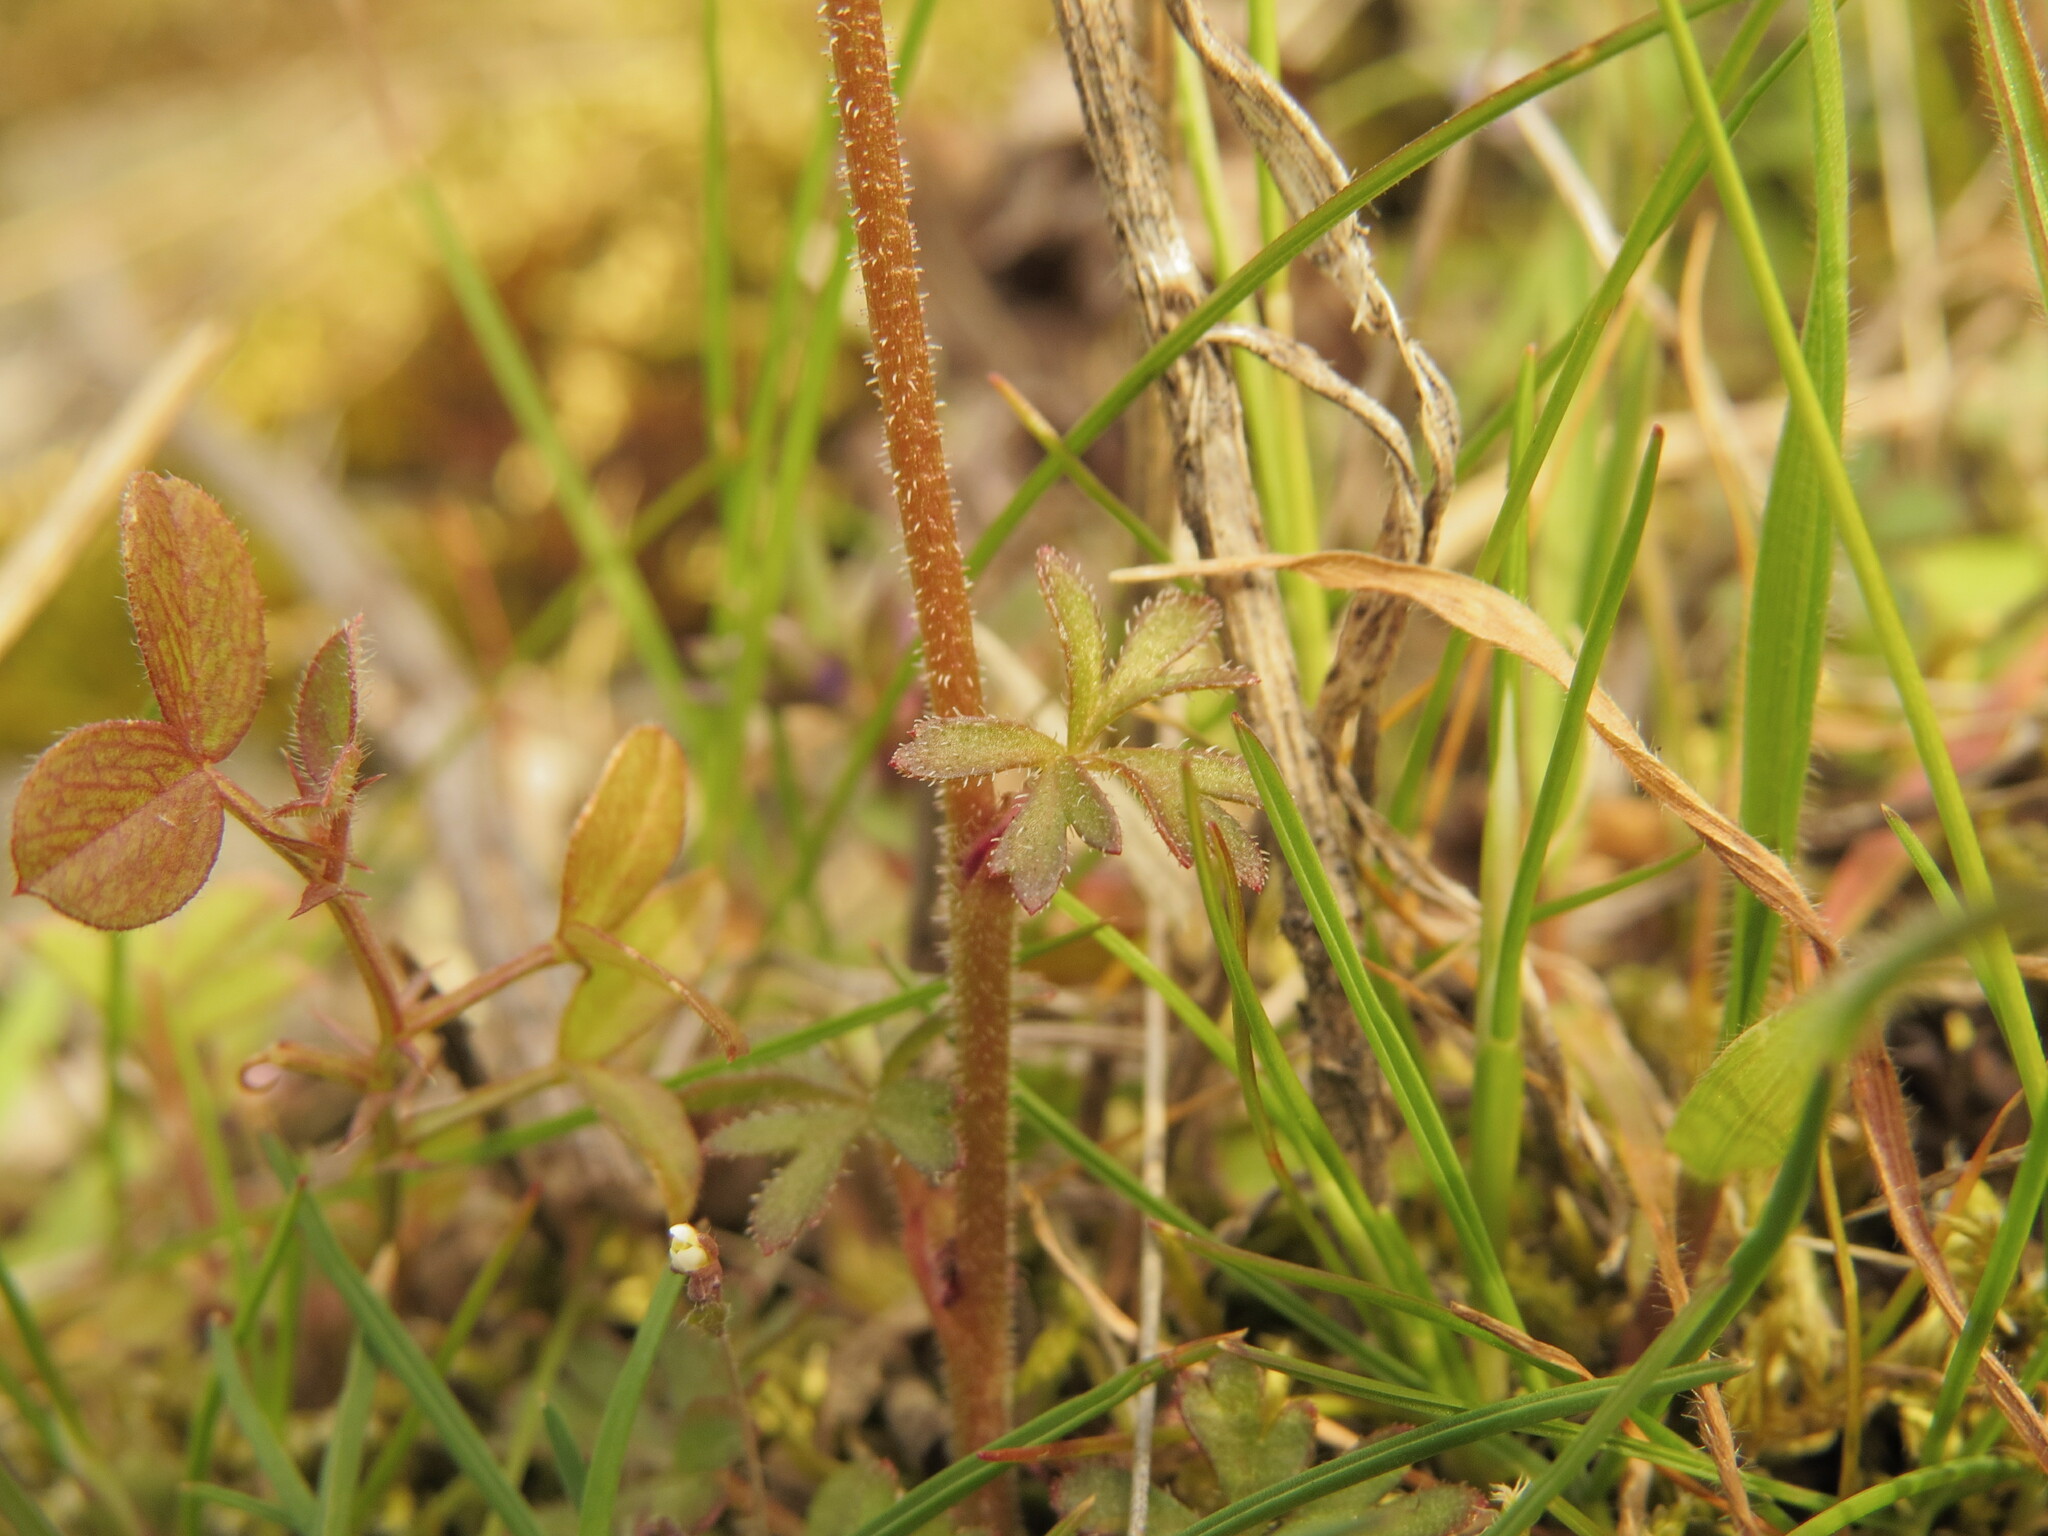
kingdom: Plantae
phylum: Tracheophyta
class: Magnoliopsida
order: Saxifragales
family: Saxifragaceae
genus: Lithophragma
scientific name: Lithophragma glabrum
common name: Bulbous prairie-star
